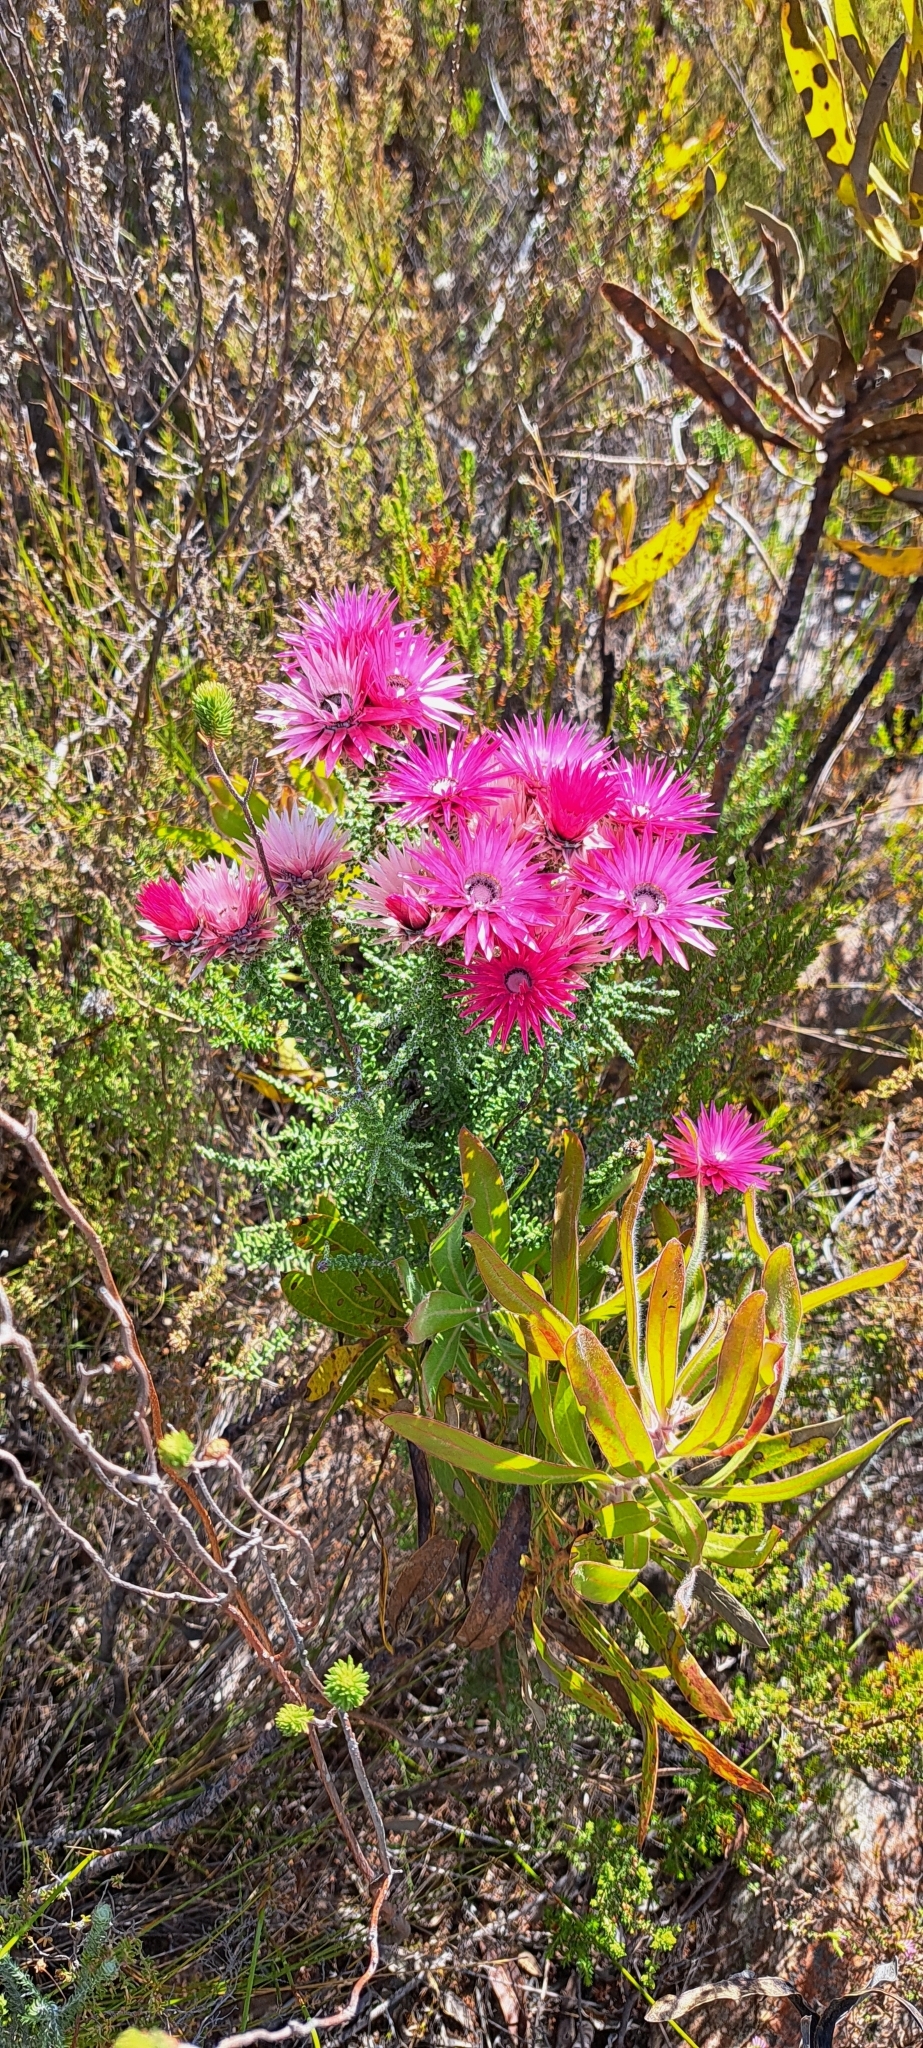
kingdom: Plantae
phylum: Tracheophyta
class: Magnoliopsida
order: Asterales
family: Asteraceae
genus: Phaenocoma
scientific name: Phaenocoma prolifera
